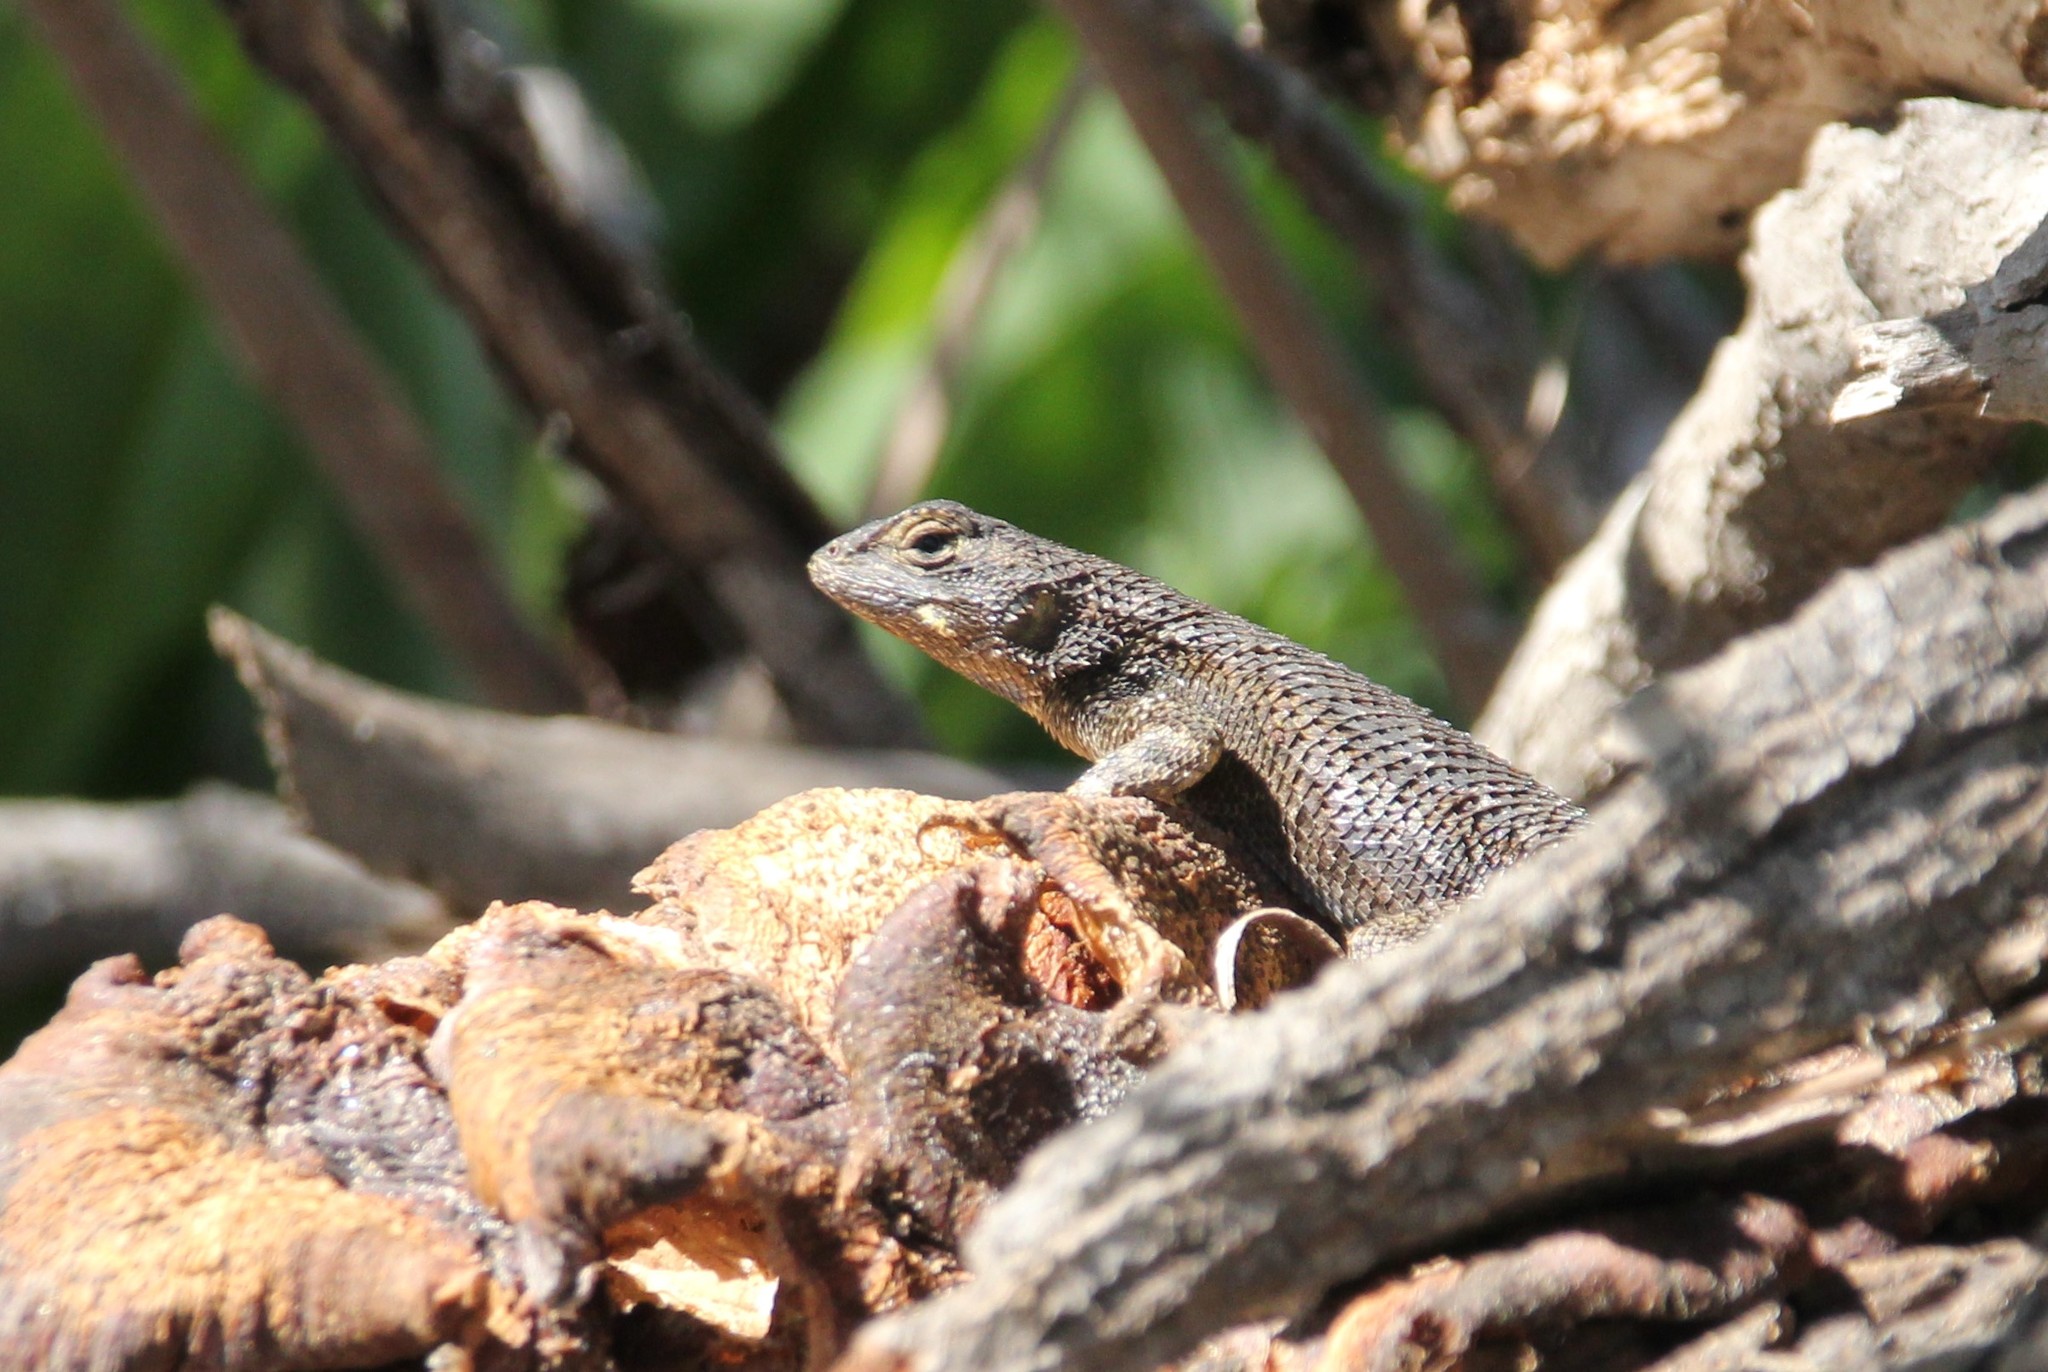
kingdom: Animalia
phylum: Chordata
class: Squamata
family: Phrynosomatidae
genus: Sceloporus
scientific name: Sceloporus occidentalis
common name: Western fence lizard
